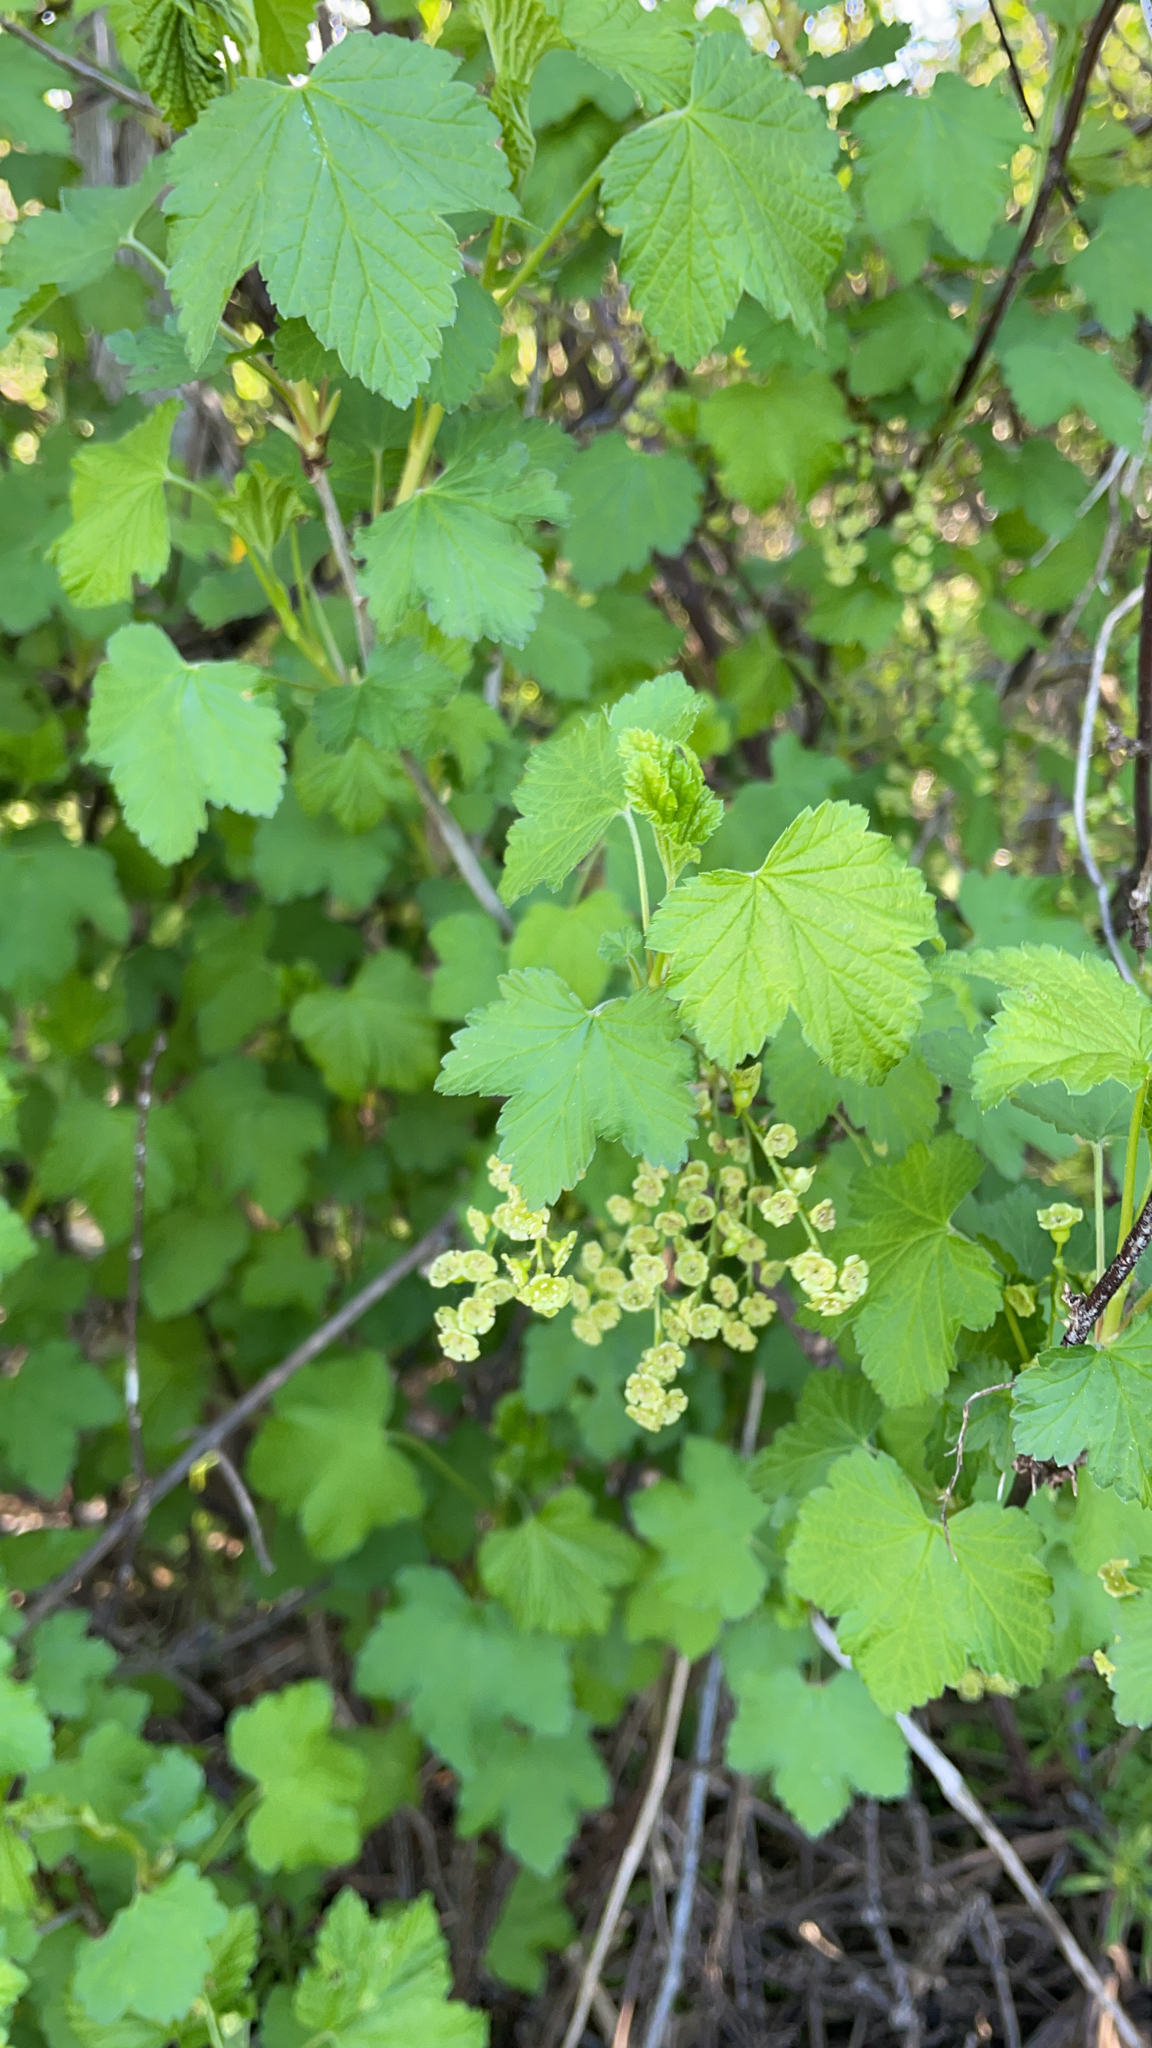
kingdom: Plantae
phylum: Tracheophyta
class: Magnoliopsida
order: Saxifragales
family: Grossulariaceae
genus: Ribes
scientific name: Ribes rubrum
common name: Red currant
